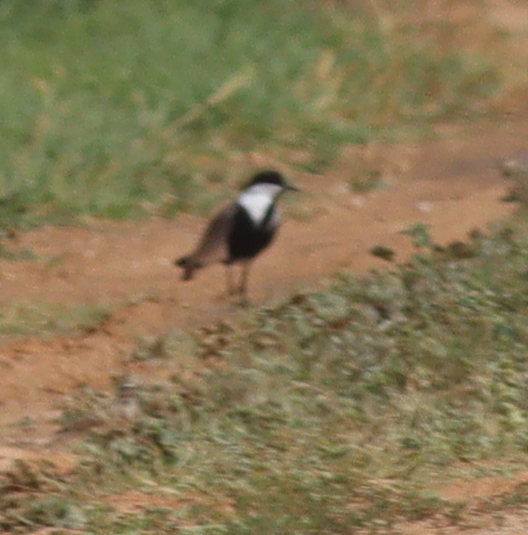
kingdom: Animalia
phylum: Chordata
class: Aves
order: Charadriiformes
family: Charadriidae
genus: Vanellus
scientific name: Vanellus spinosus
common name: Spur-winged lapwing
